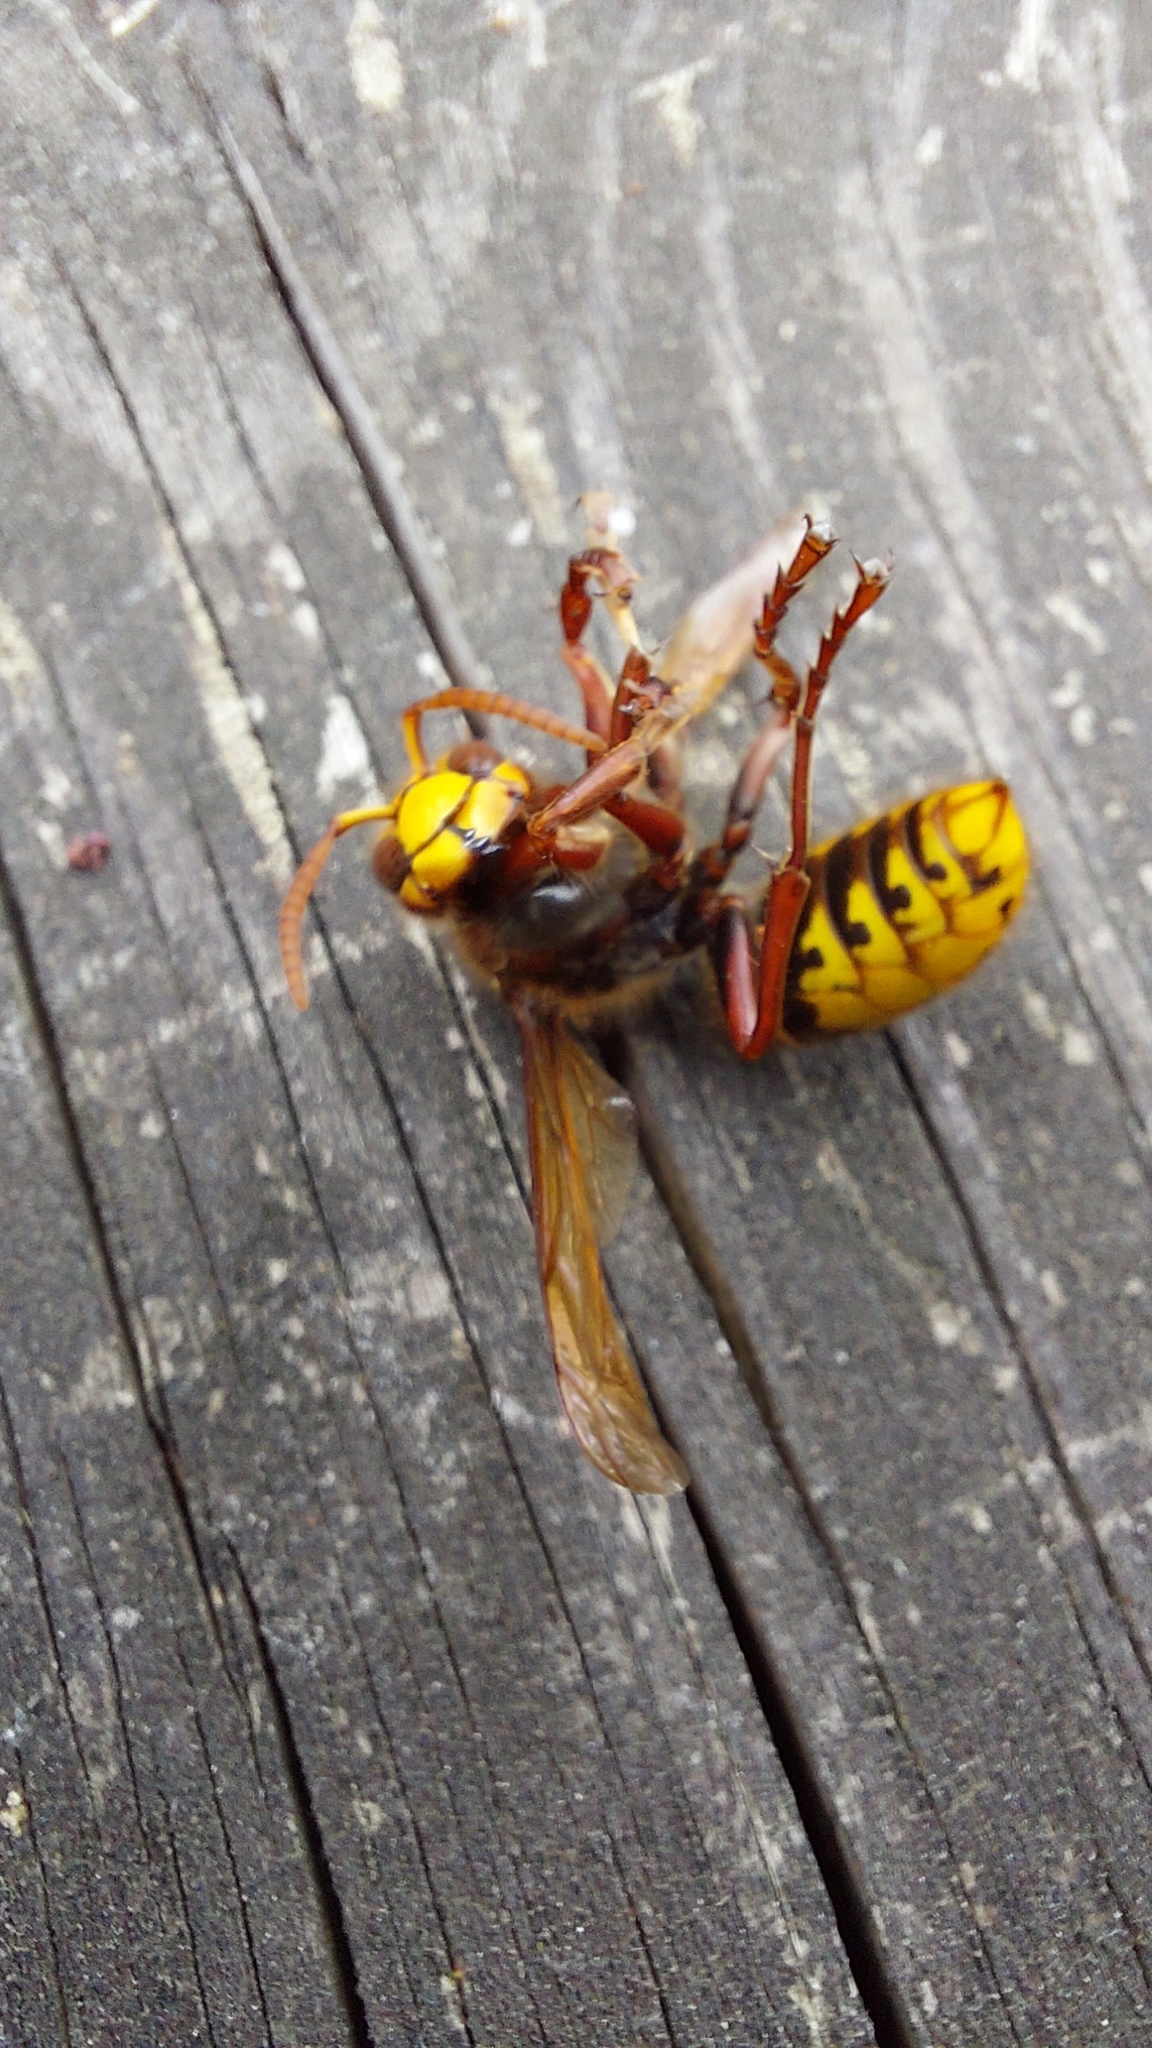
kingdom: Animalia
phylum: Arthropoda
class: Insecta
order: Hymenoptera
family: Vespidae
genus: Vespa
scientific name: Vespa crabro
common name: Hornet
